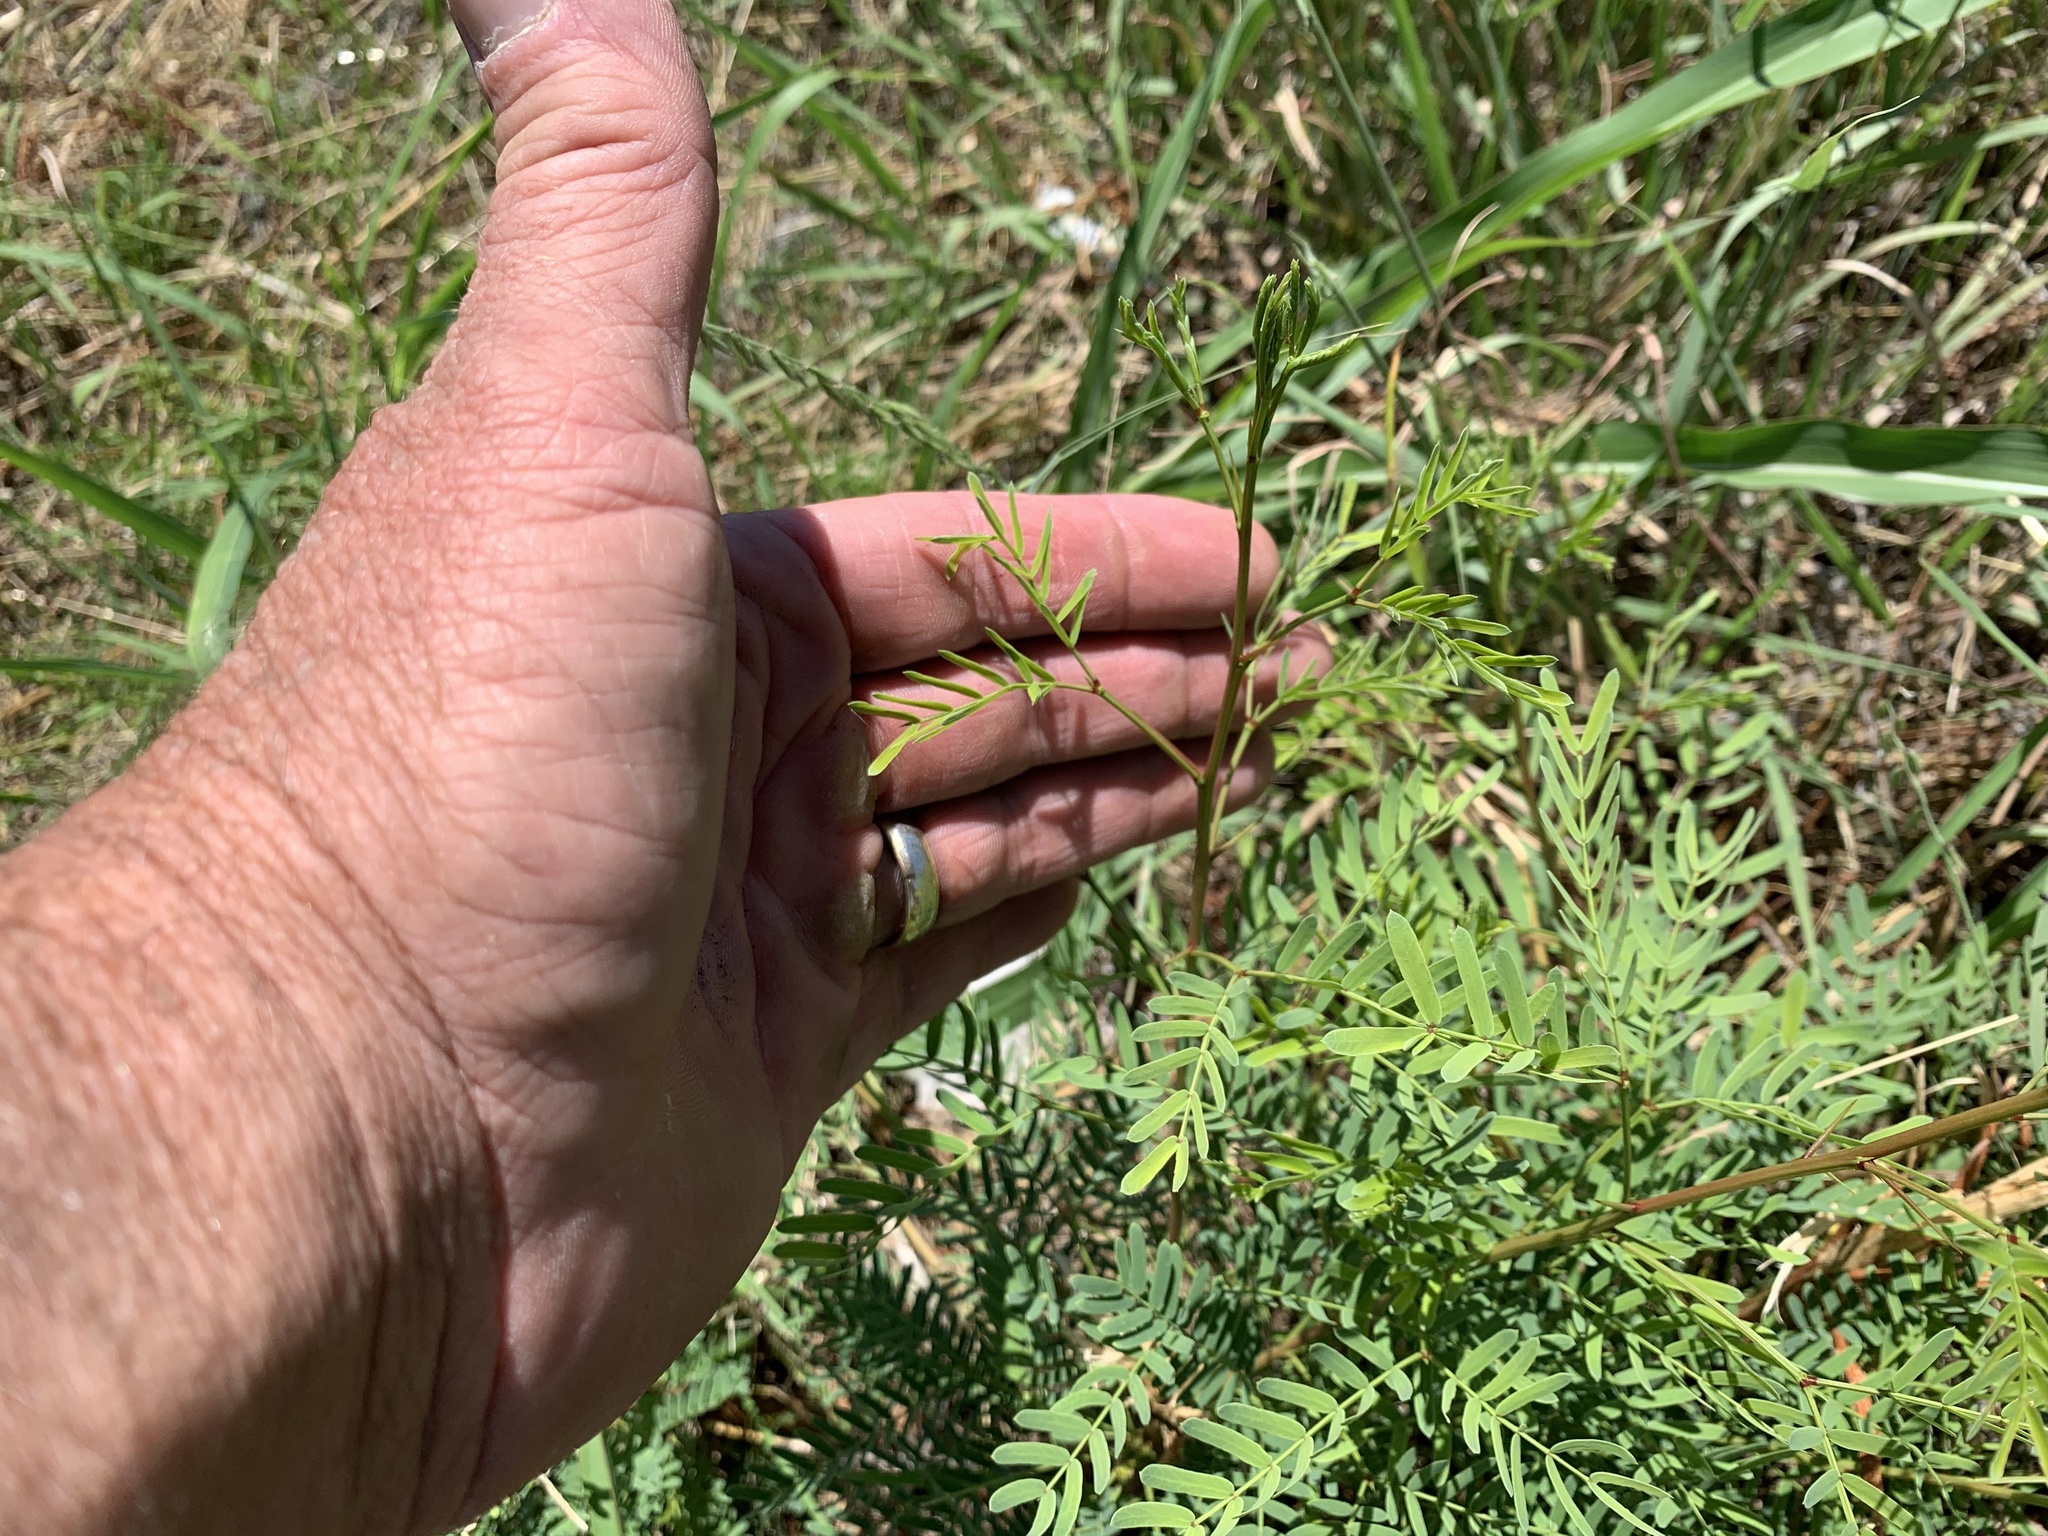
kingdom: Plantae
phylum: Tracheophyta
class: Magnoliopsida
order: Fabales
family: Fabaceae
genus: Prosopis
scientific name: Prosopis glandulosa
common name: Honey mesquite
